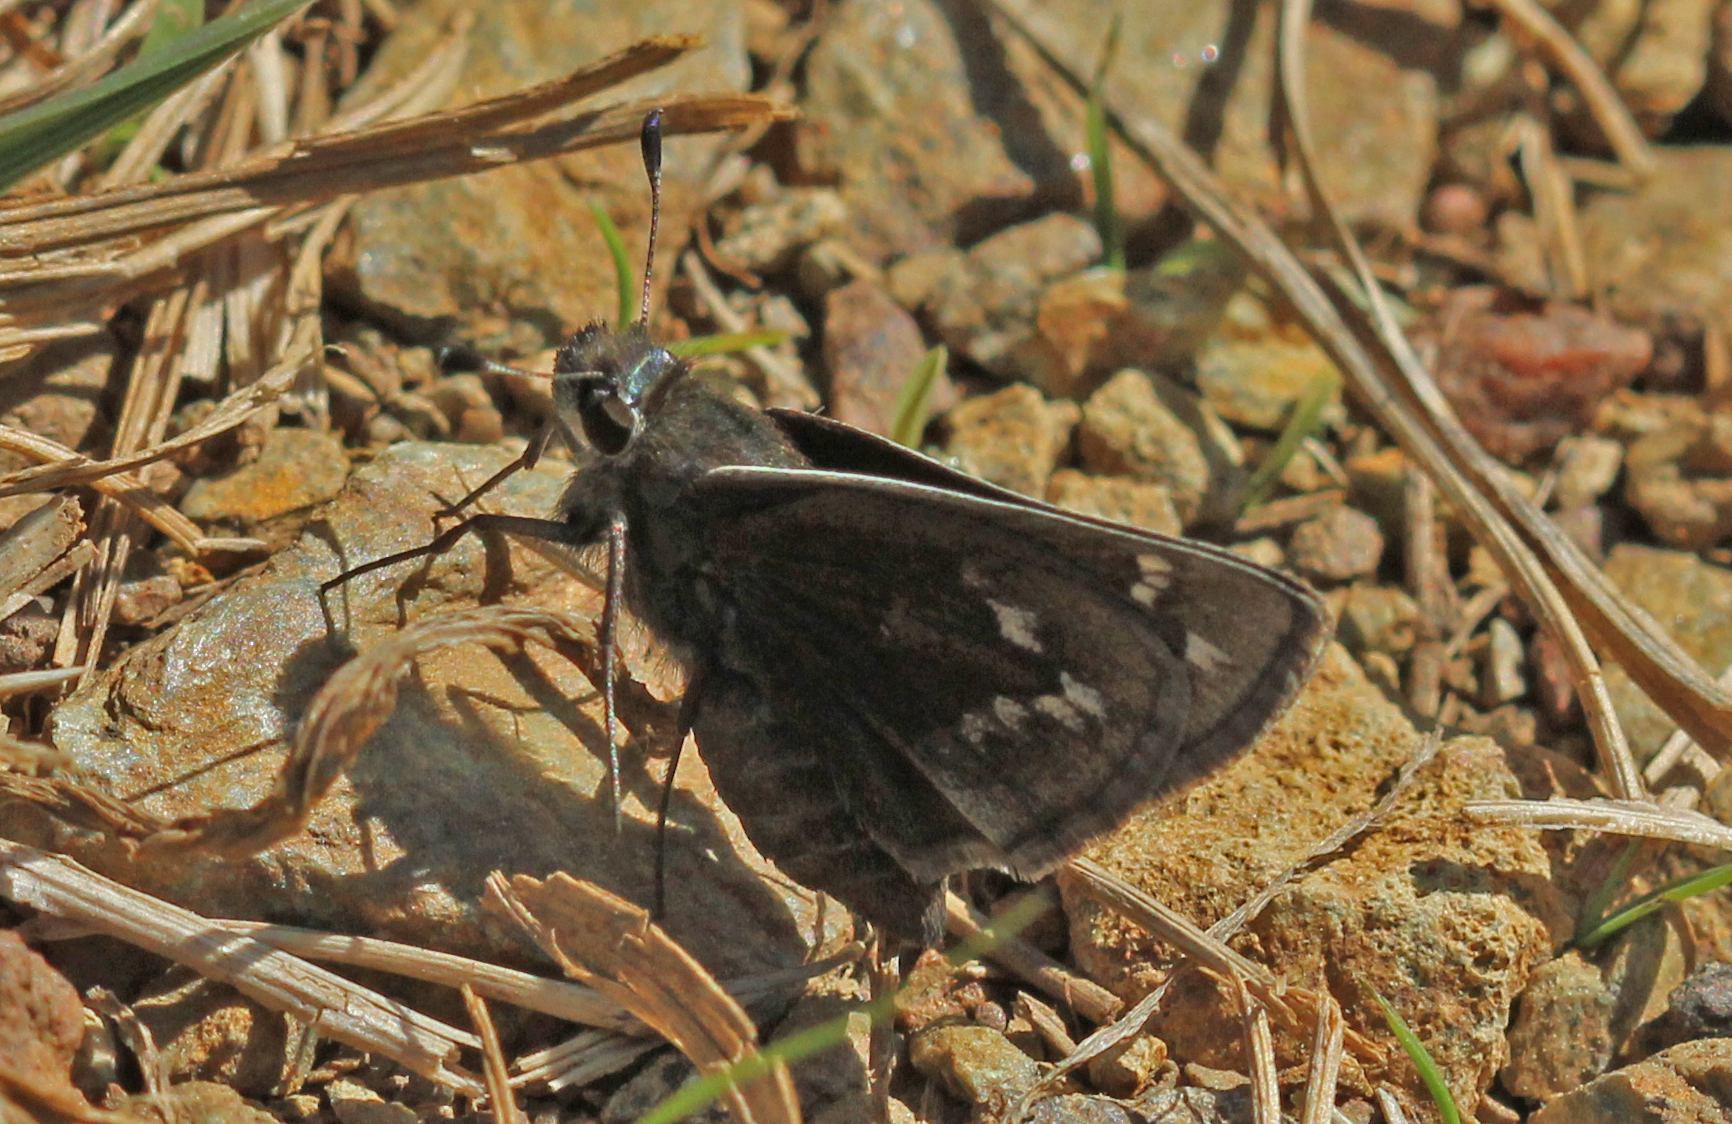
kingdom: Animalia
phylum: Arthropoda
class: Insecta
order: Lepidoptera
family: Hesperiidae
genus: Hesperia
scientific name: Hesperia metea
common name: Cobweb skipper
